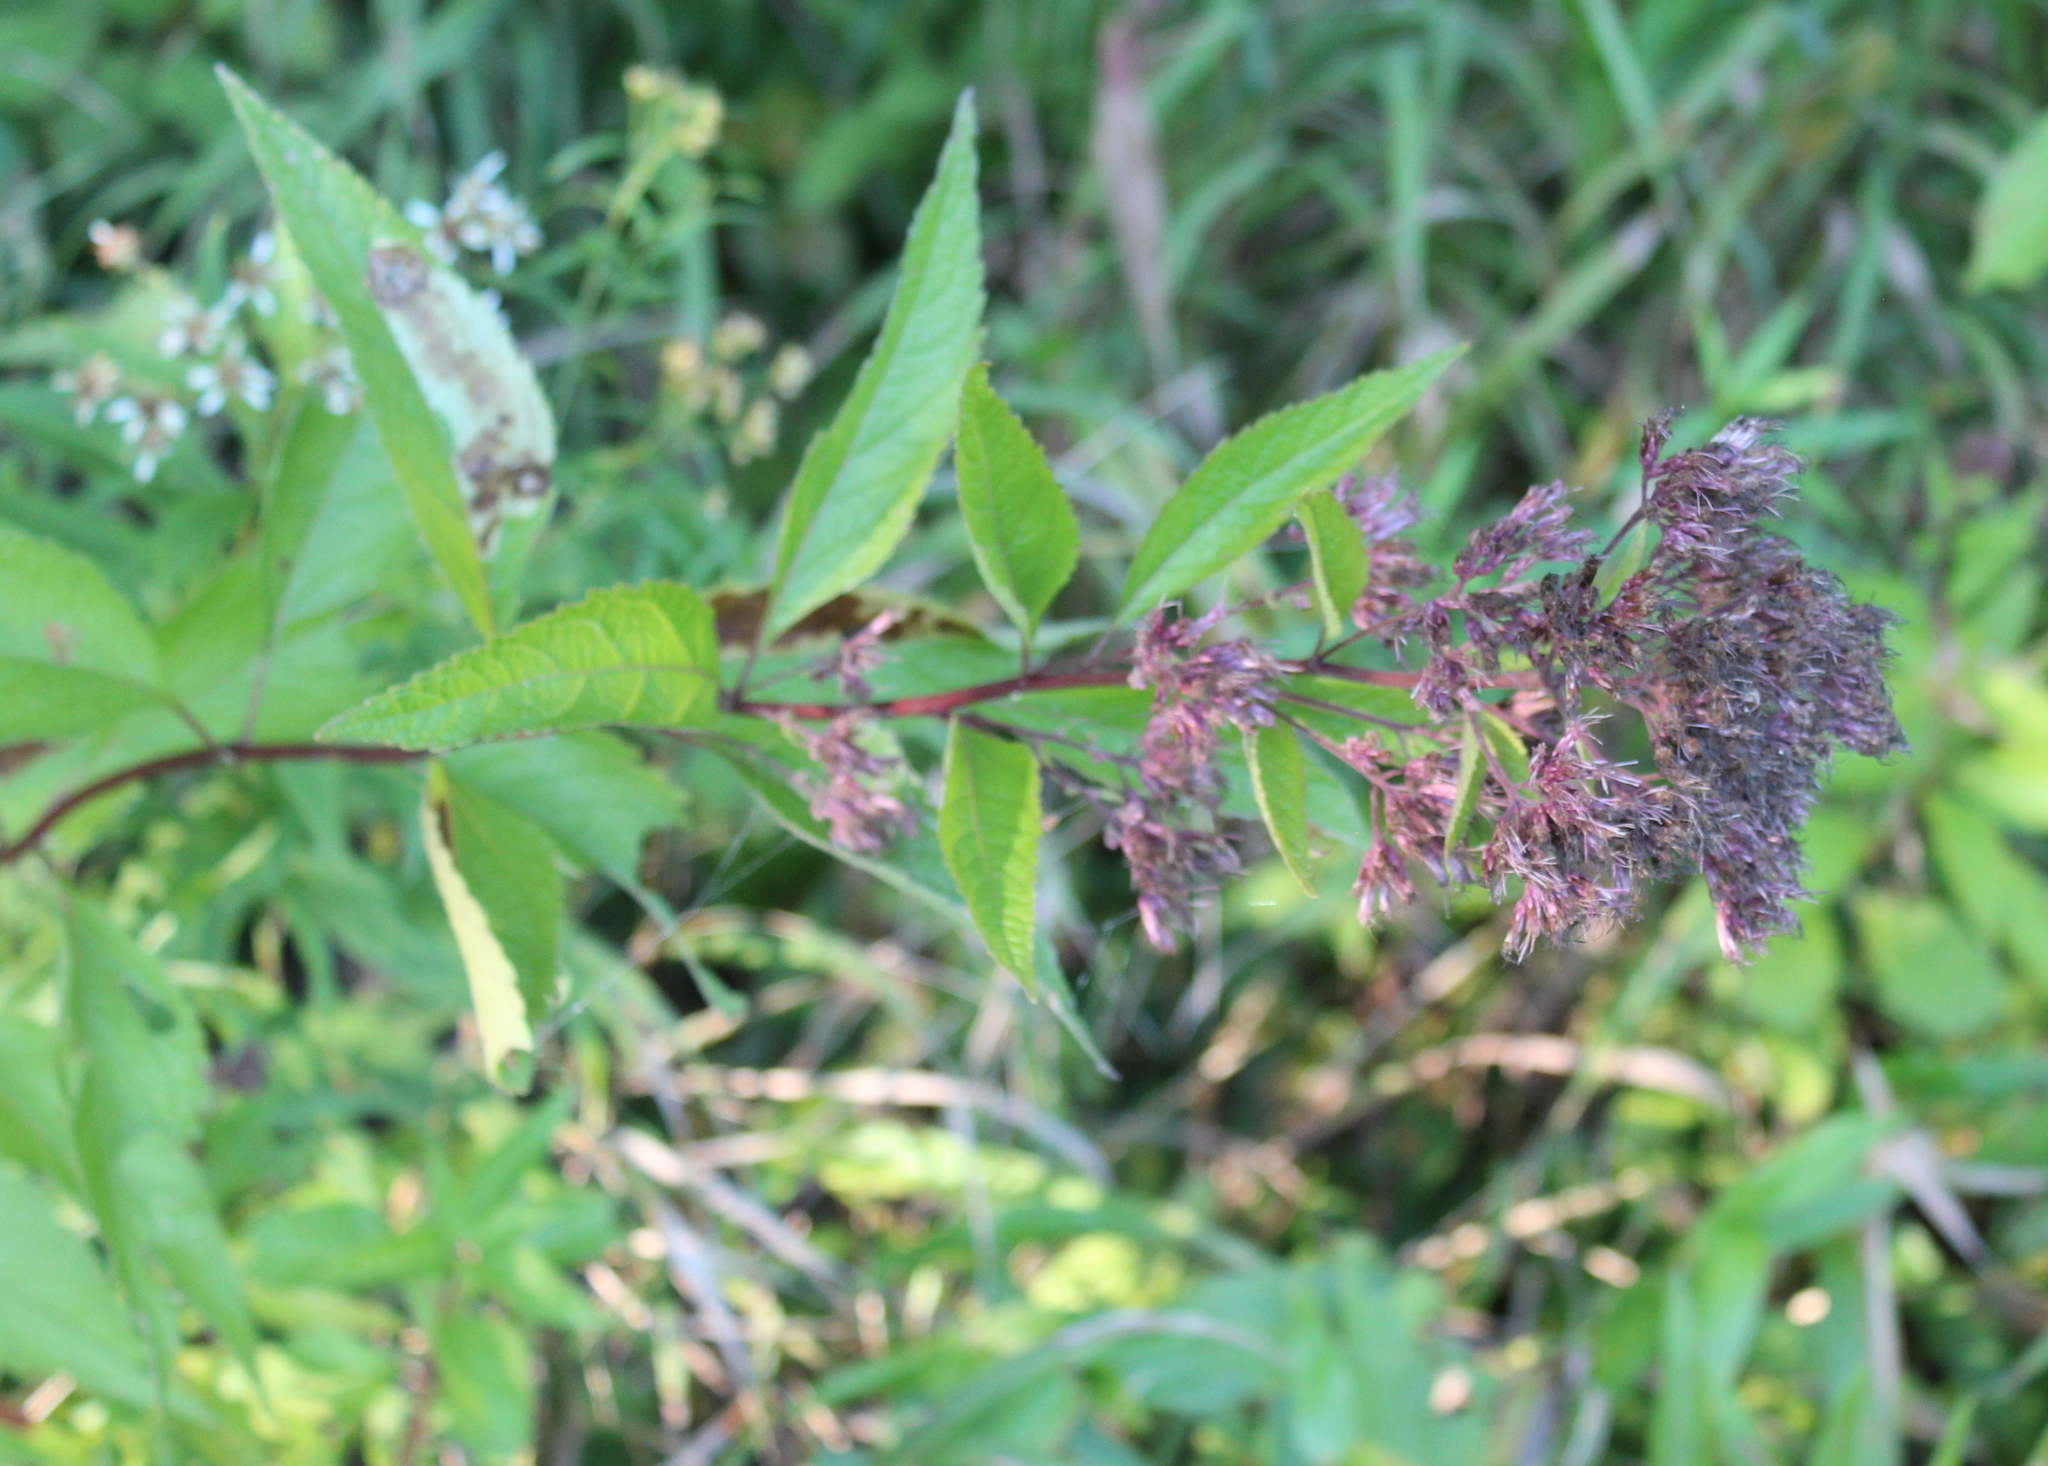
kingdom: Plantae
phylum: Tracheophyta
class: Magnoliopsida
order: Asterales
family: Asteraceae
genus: Eutrochium
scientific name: Eutrochium maculatum
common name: Spotted joe pye weed
